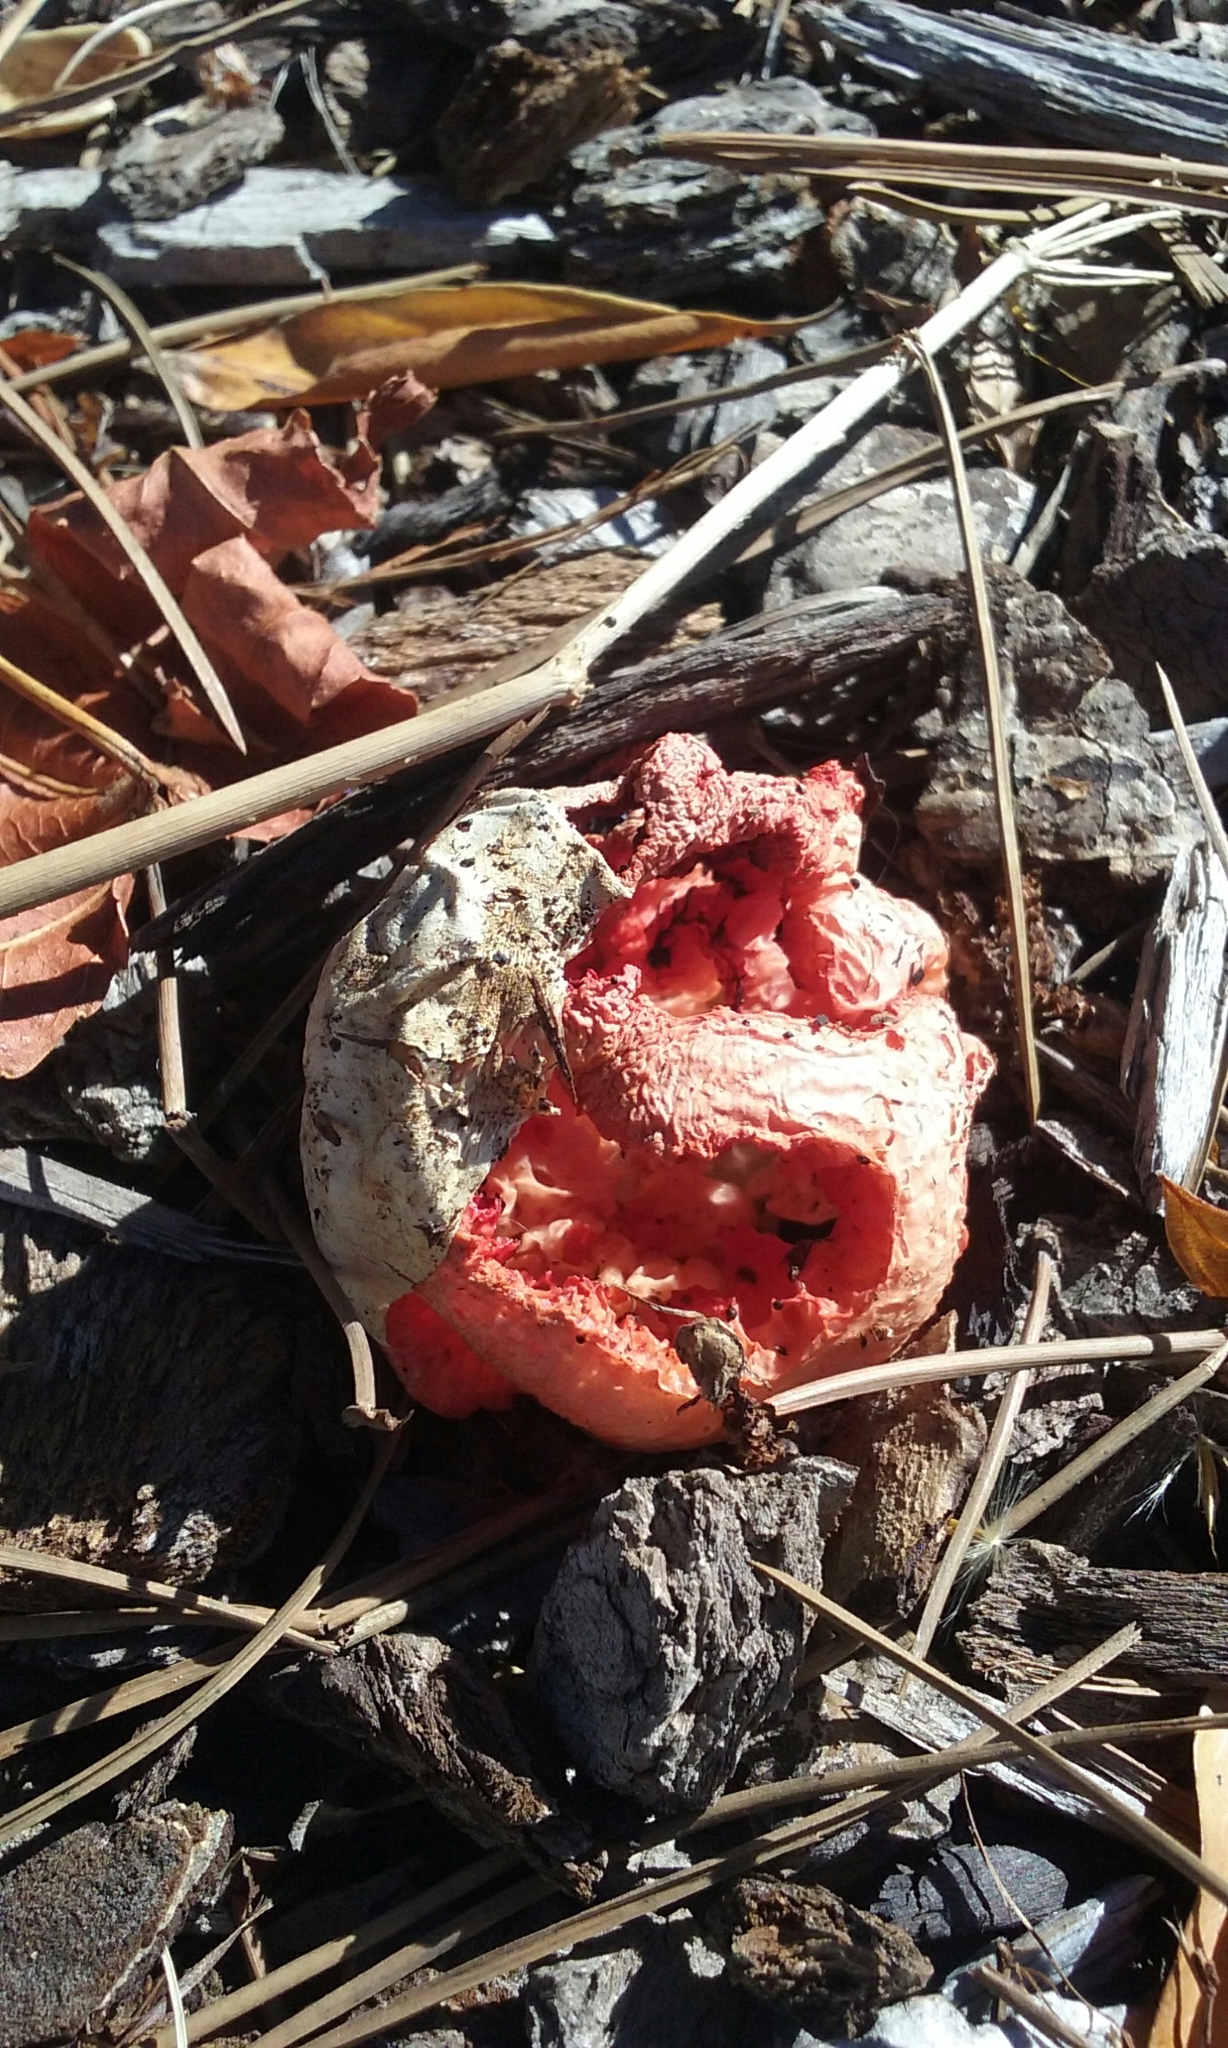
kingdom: Fungi
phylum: Basidiomycota
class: Agaricomycetes
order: Phallales
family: Phallaceae
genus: Clathrus
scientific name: Clathrus ruber
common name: Red cage
